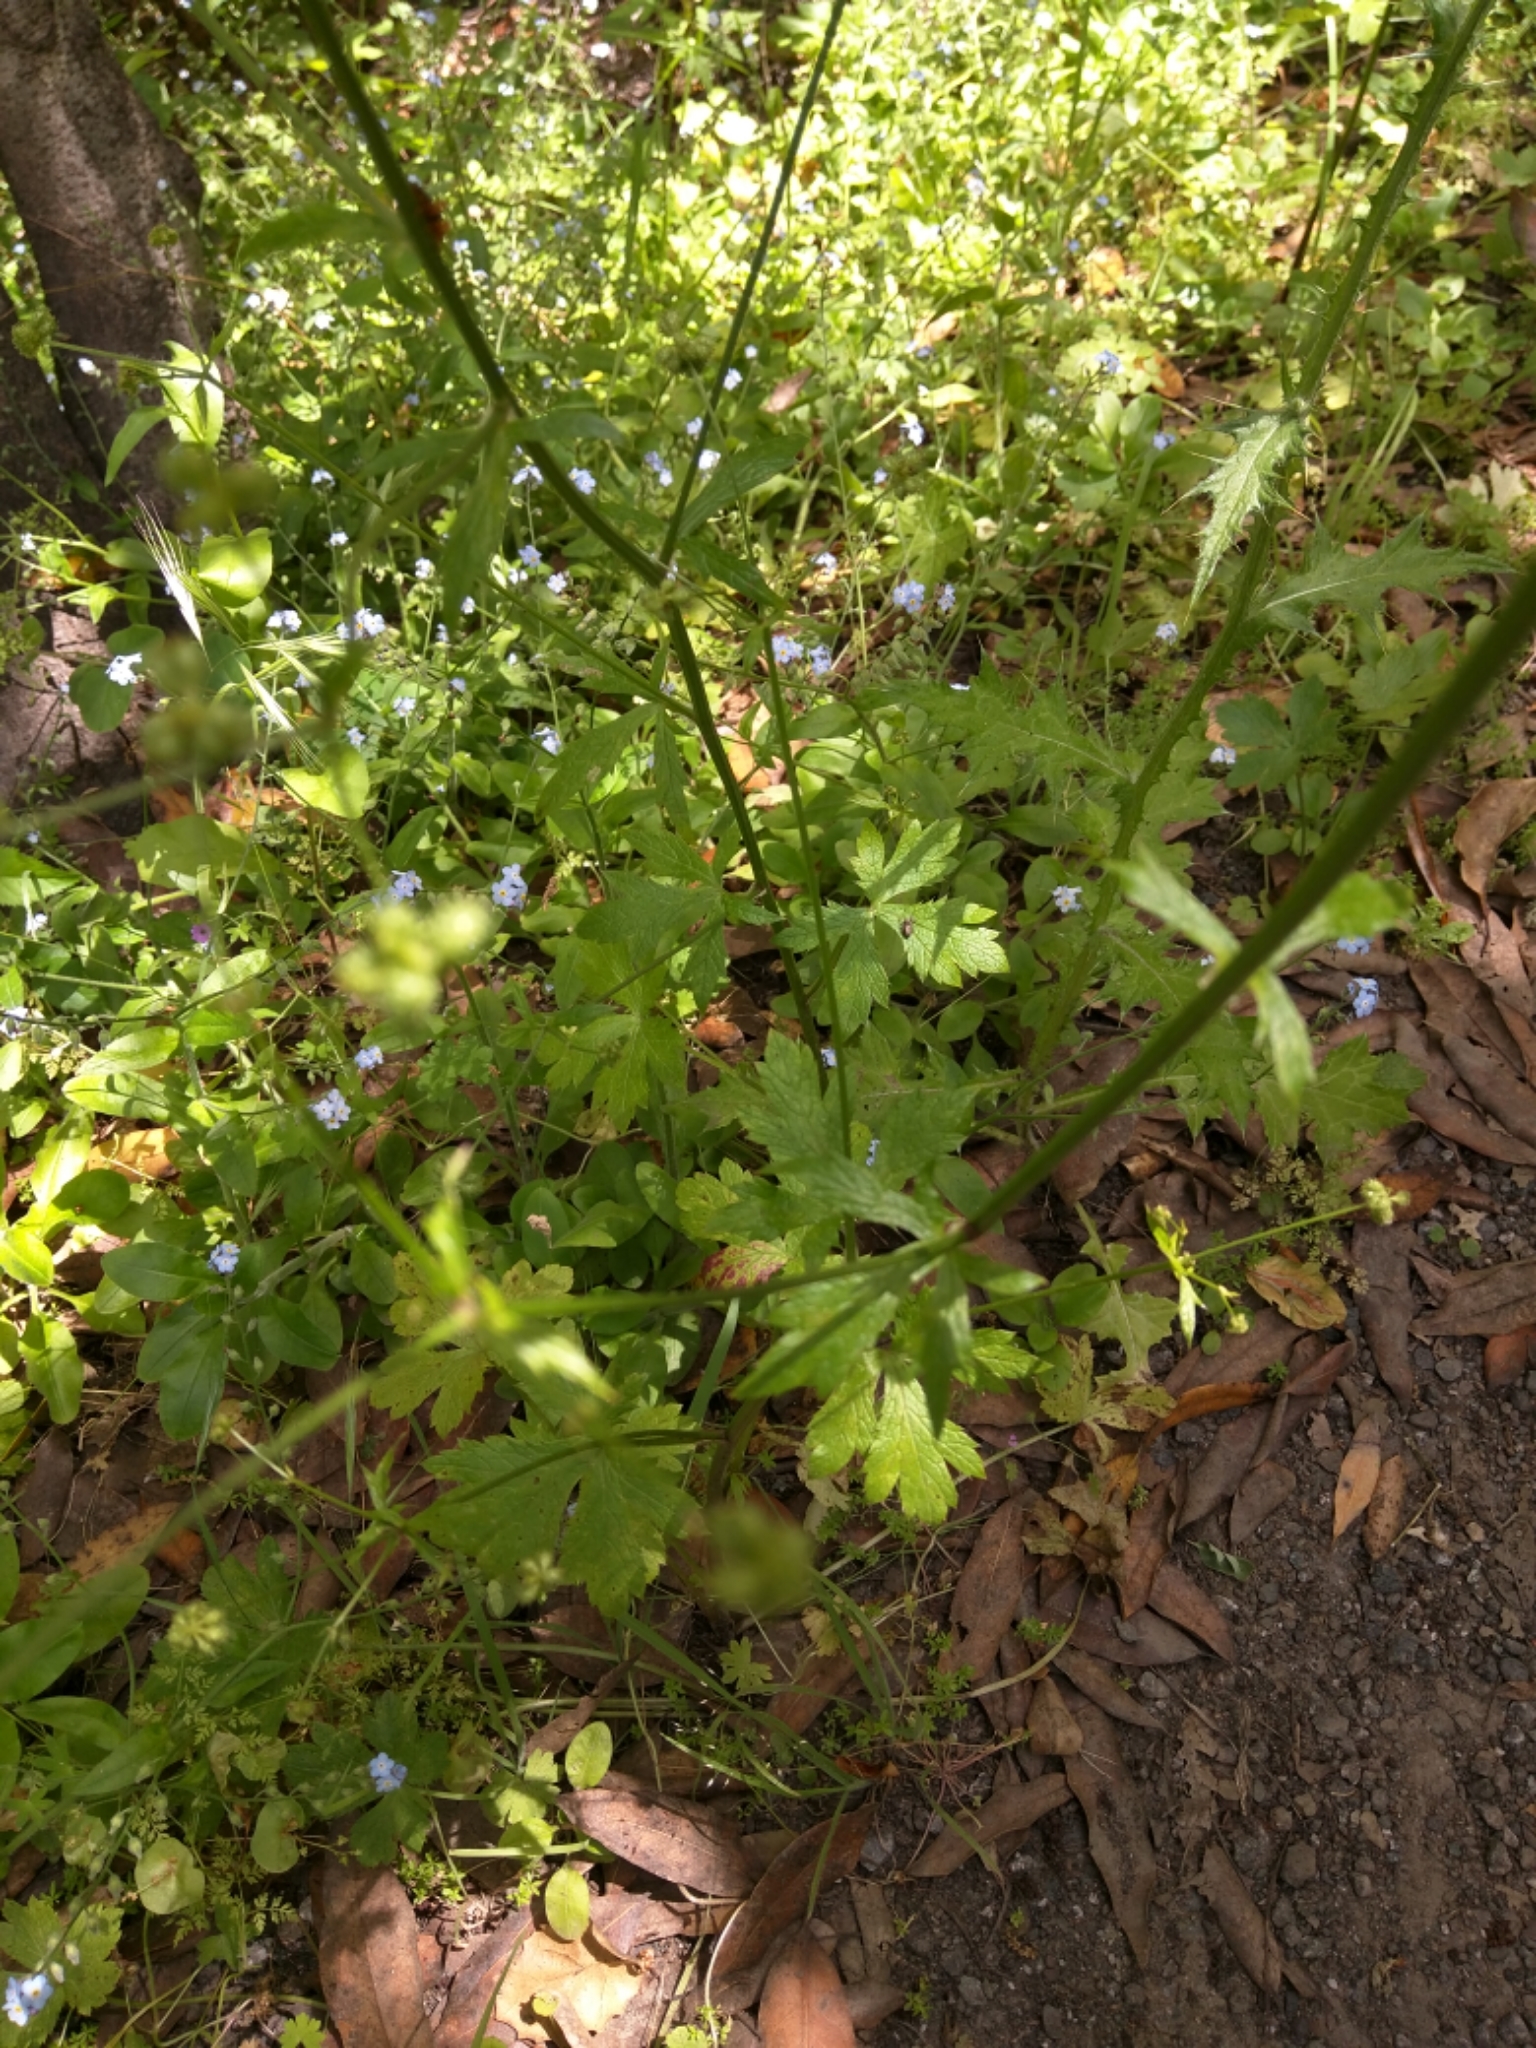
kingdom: Plantae
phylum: Tracheophyta
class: Magnoliopsida
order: Apiales
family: Apiaceae
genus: Sanicula
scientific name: Sanicula crassicaulis
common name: Western snakeroot
